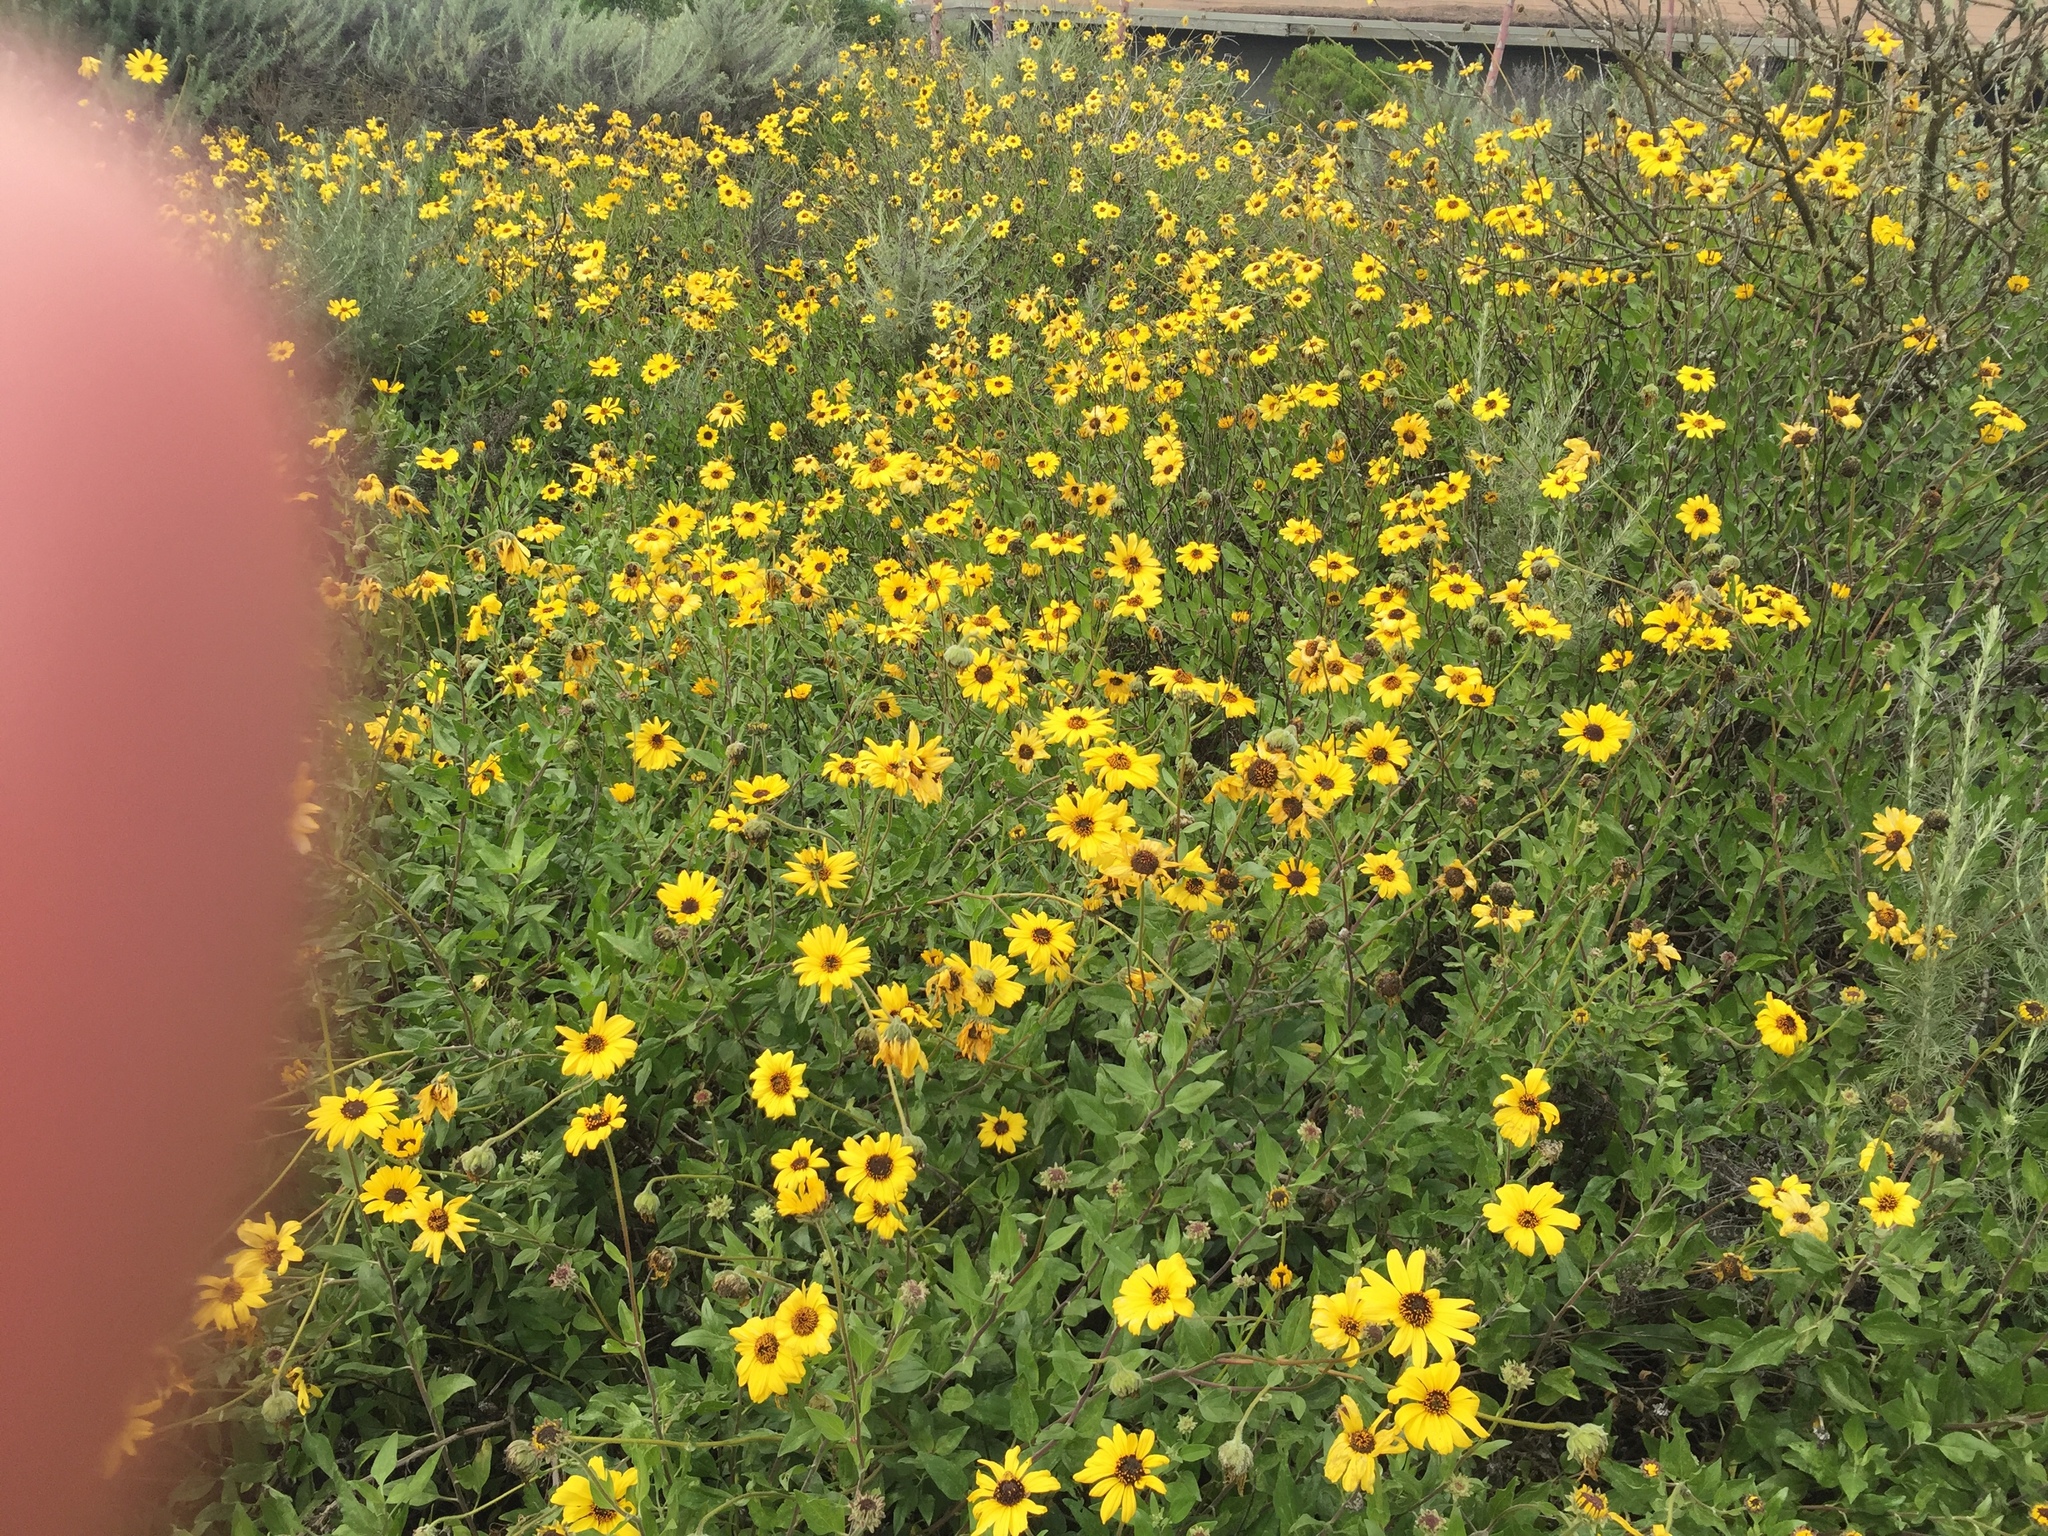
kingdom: Animalia
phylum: Arthropoda
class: Insecta
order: Hymenoptera
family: Apidae
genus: Apis
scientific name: Apis mellifera
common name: Honey bee
